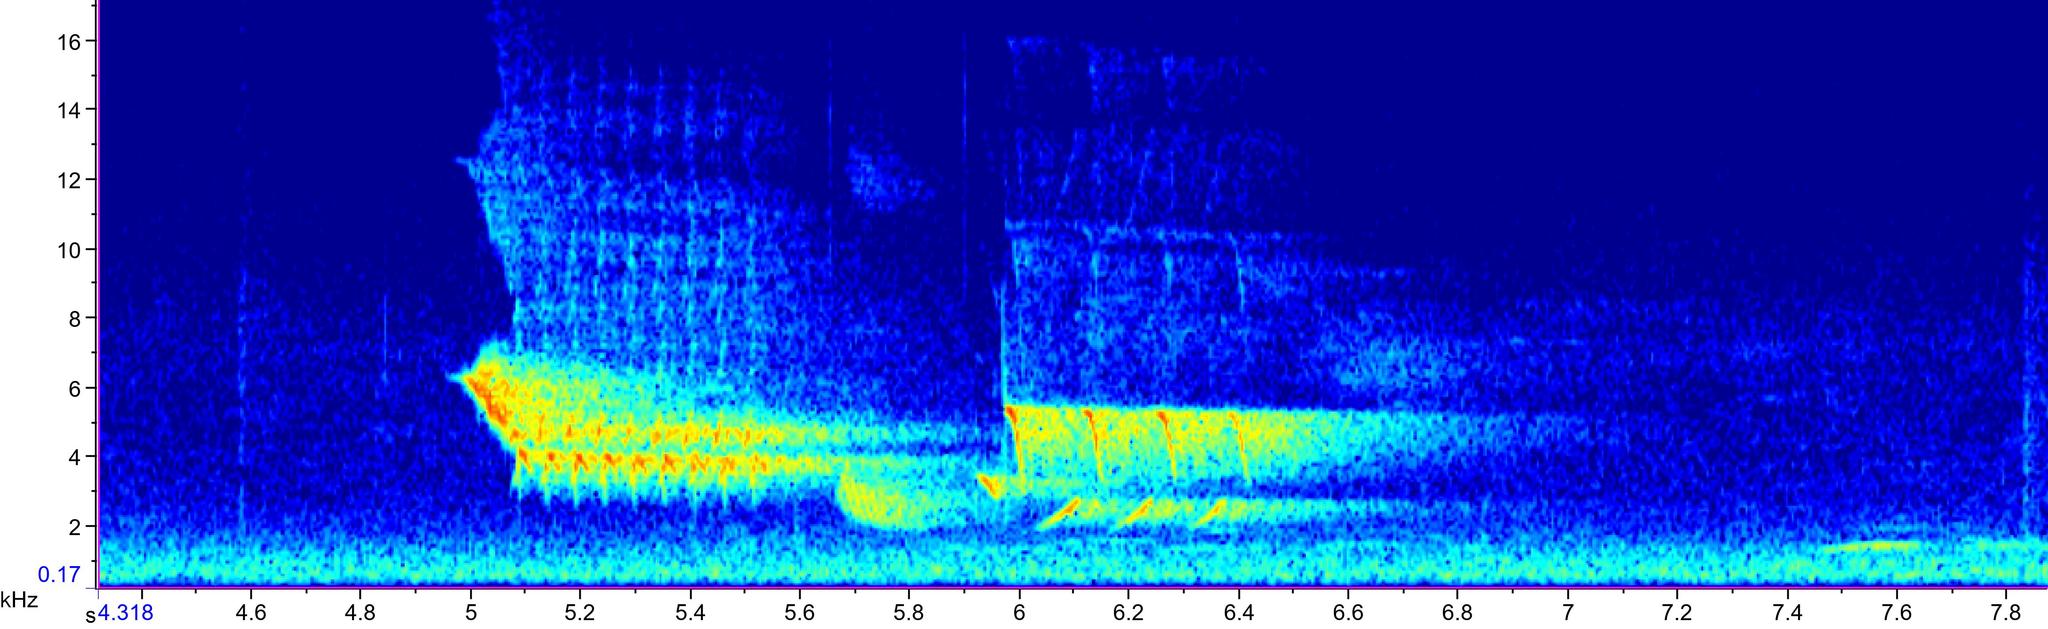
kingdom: Animalia
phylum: Chordata
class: Aves
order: Passeriformes
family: Passerellidae
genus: Pipilo
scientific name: Pipilo erythrophthalmus
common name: Eastern towhee
